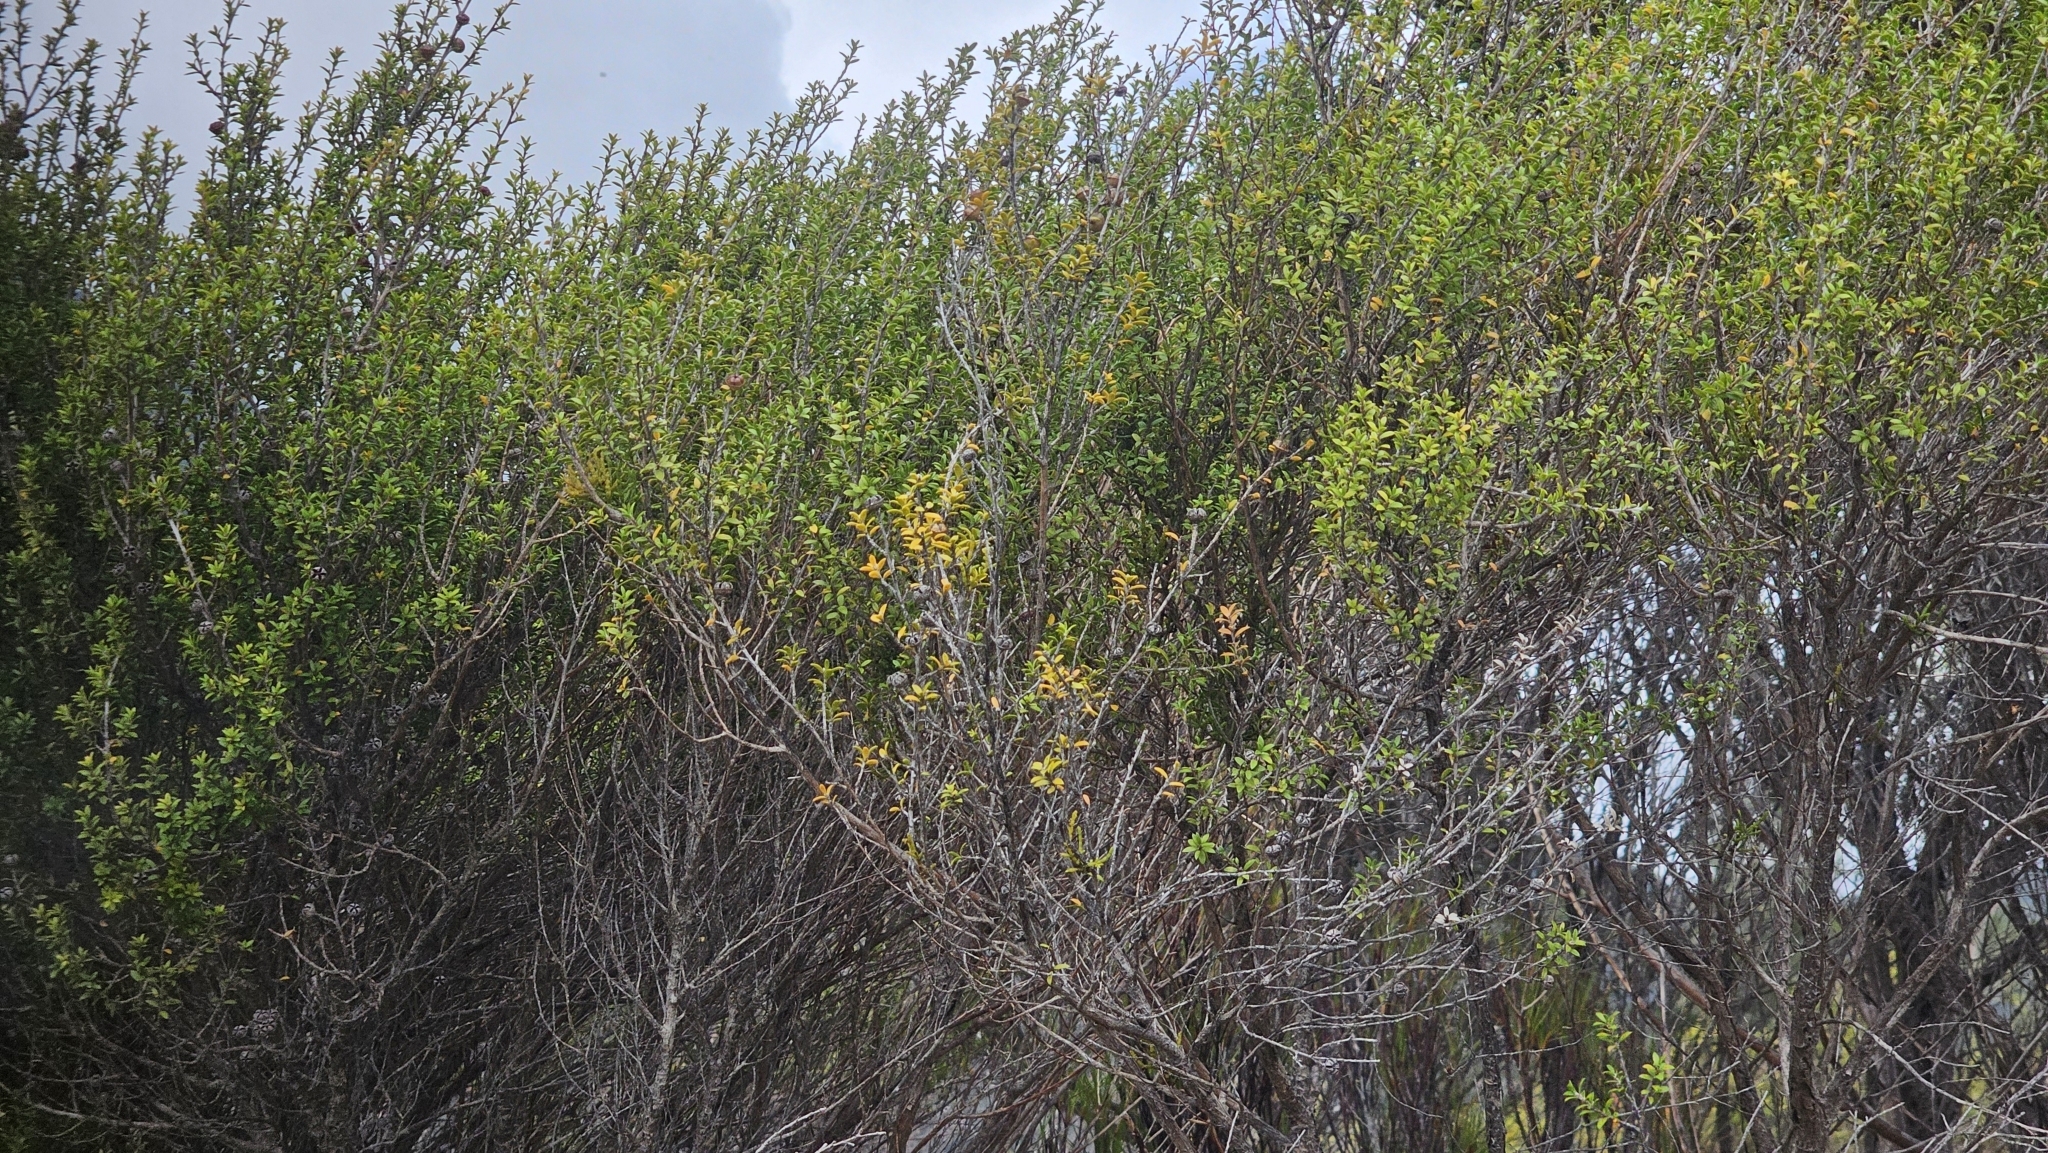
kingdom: Plantae
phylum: Tracheophyta
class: Magnoliopsida
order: Santalales
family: Viscaceae
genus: Korthalsella
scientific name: Korthalsella salicornioides
